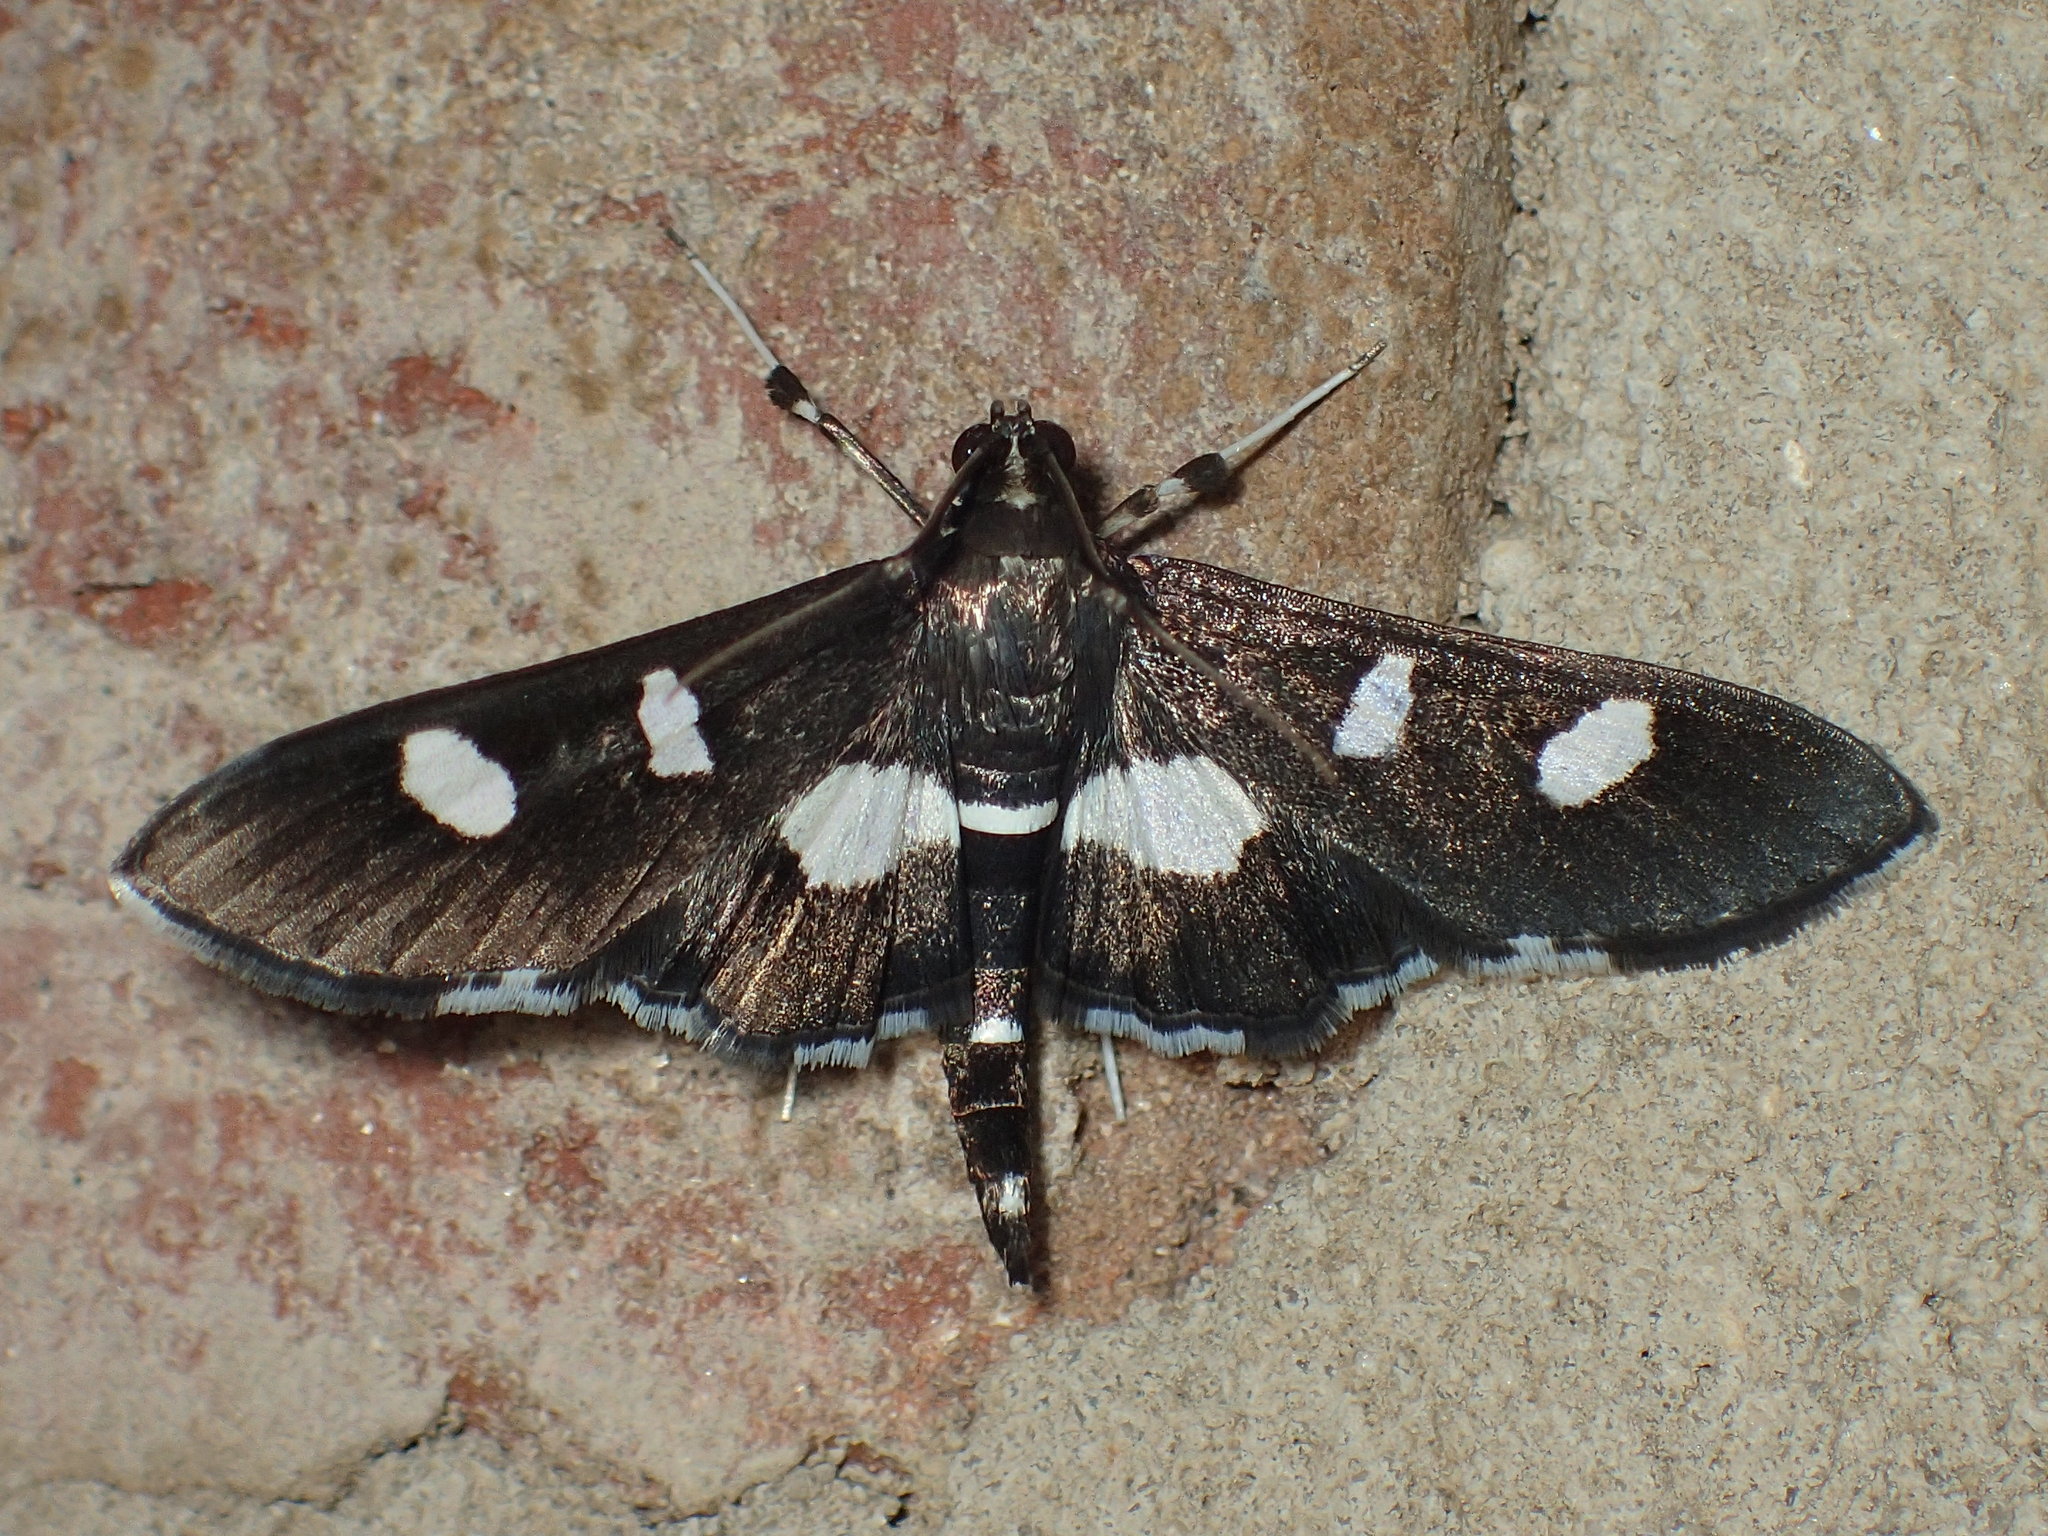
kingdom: Animalia
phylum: Arthropoda
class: Insecta
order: Lepidoptera
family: Crambidae
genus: Desmia
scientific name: Desmia
